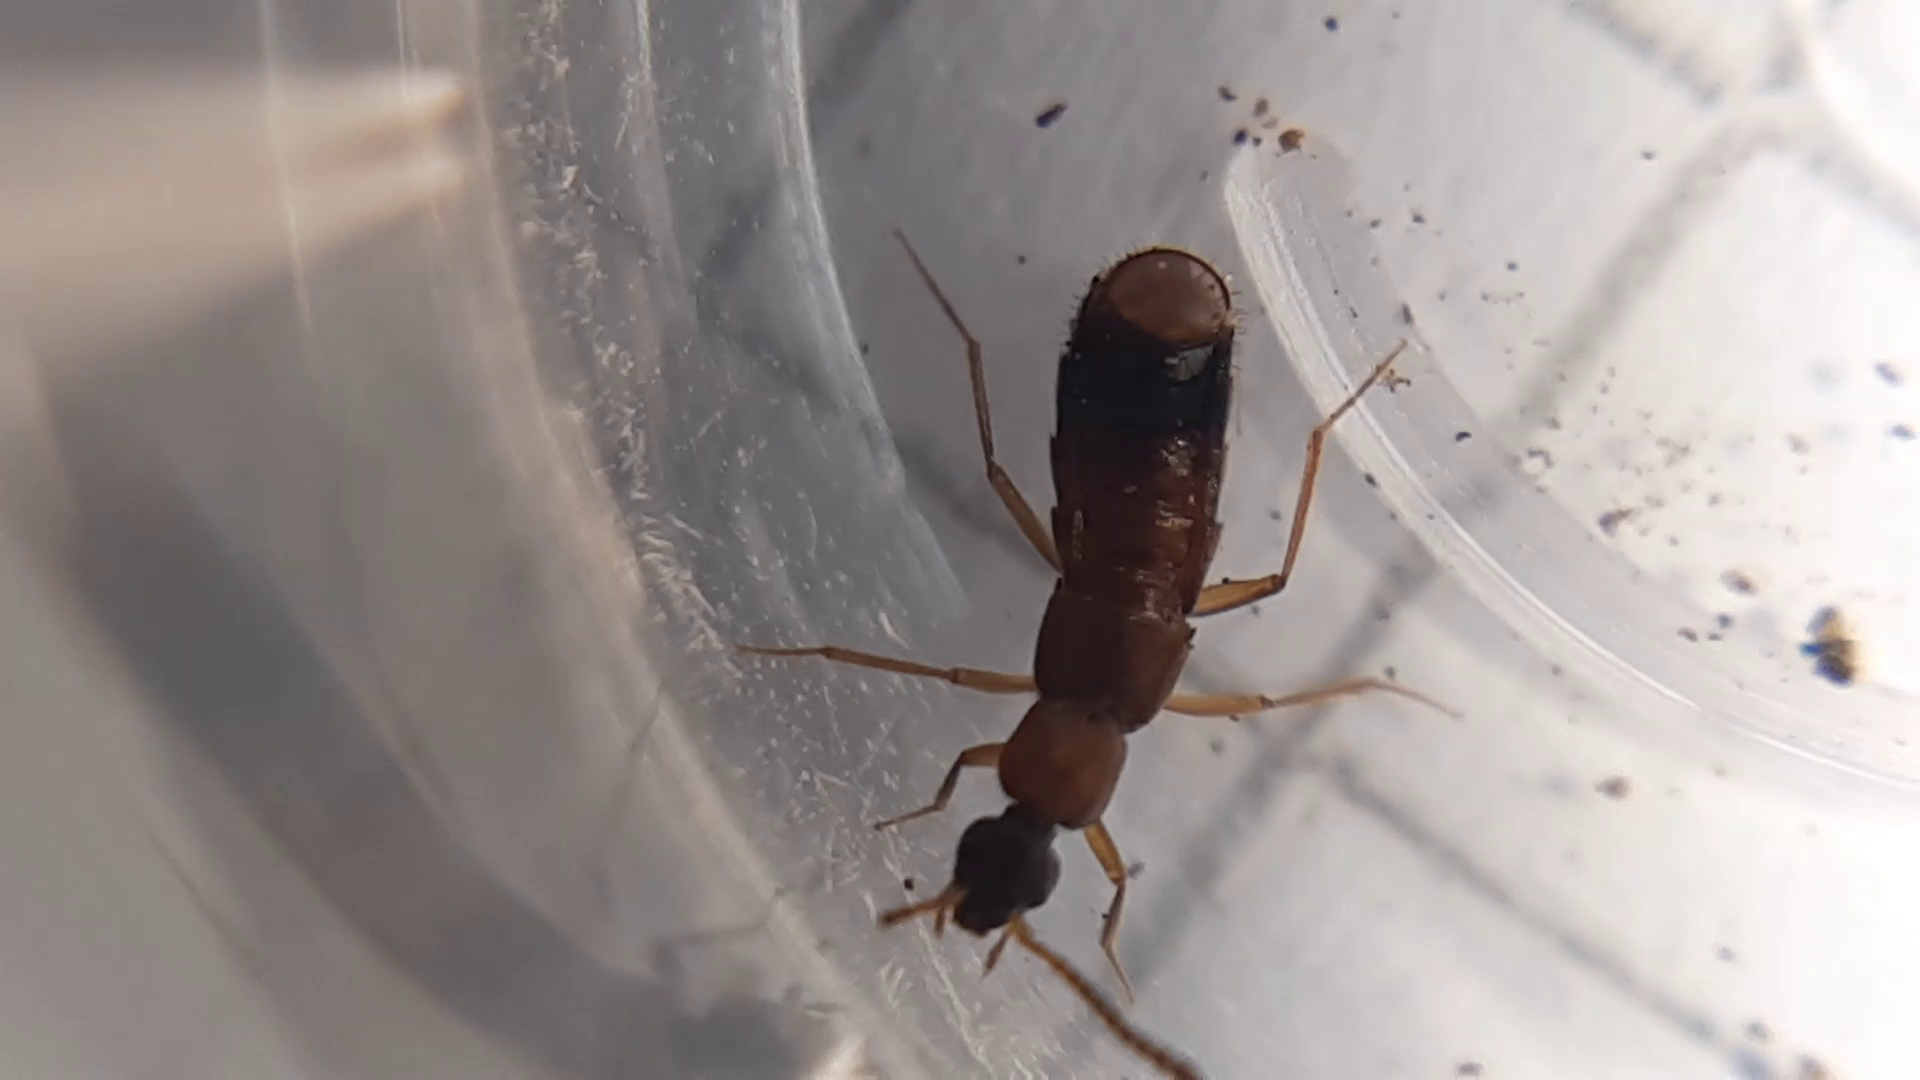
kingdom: Animalia
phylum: Arthropoda
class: Insecta
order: Coleoptera
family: Staphylinidae
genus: Drusilla
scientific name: Drusilla canaliculata
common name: Rove beetle
